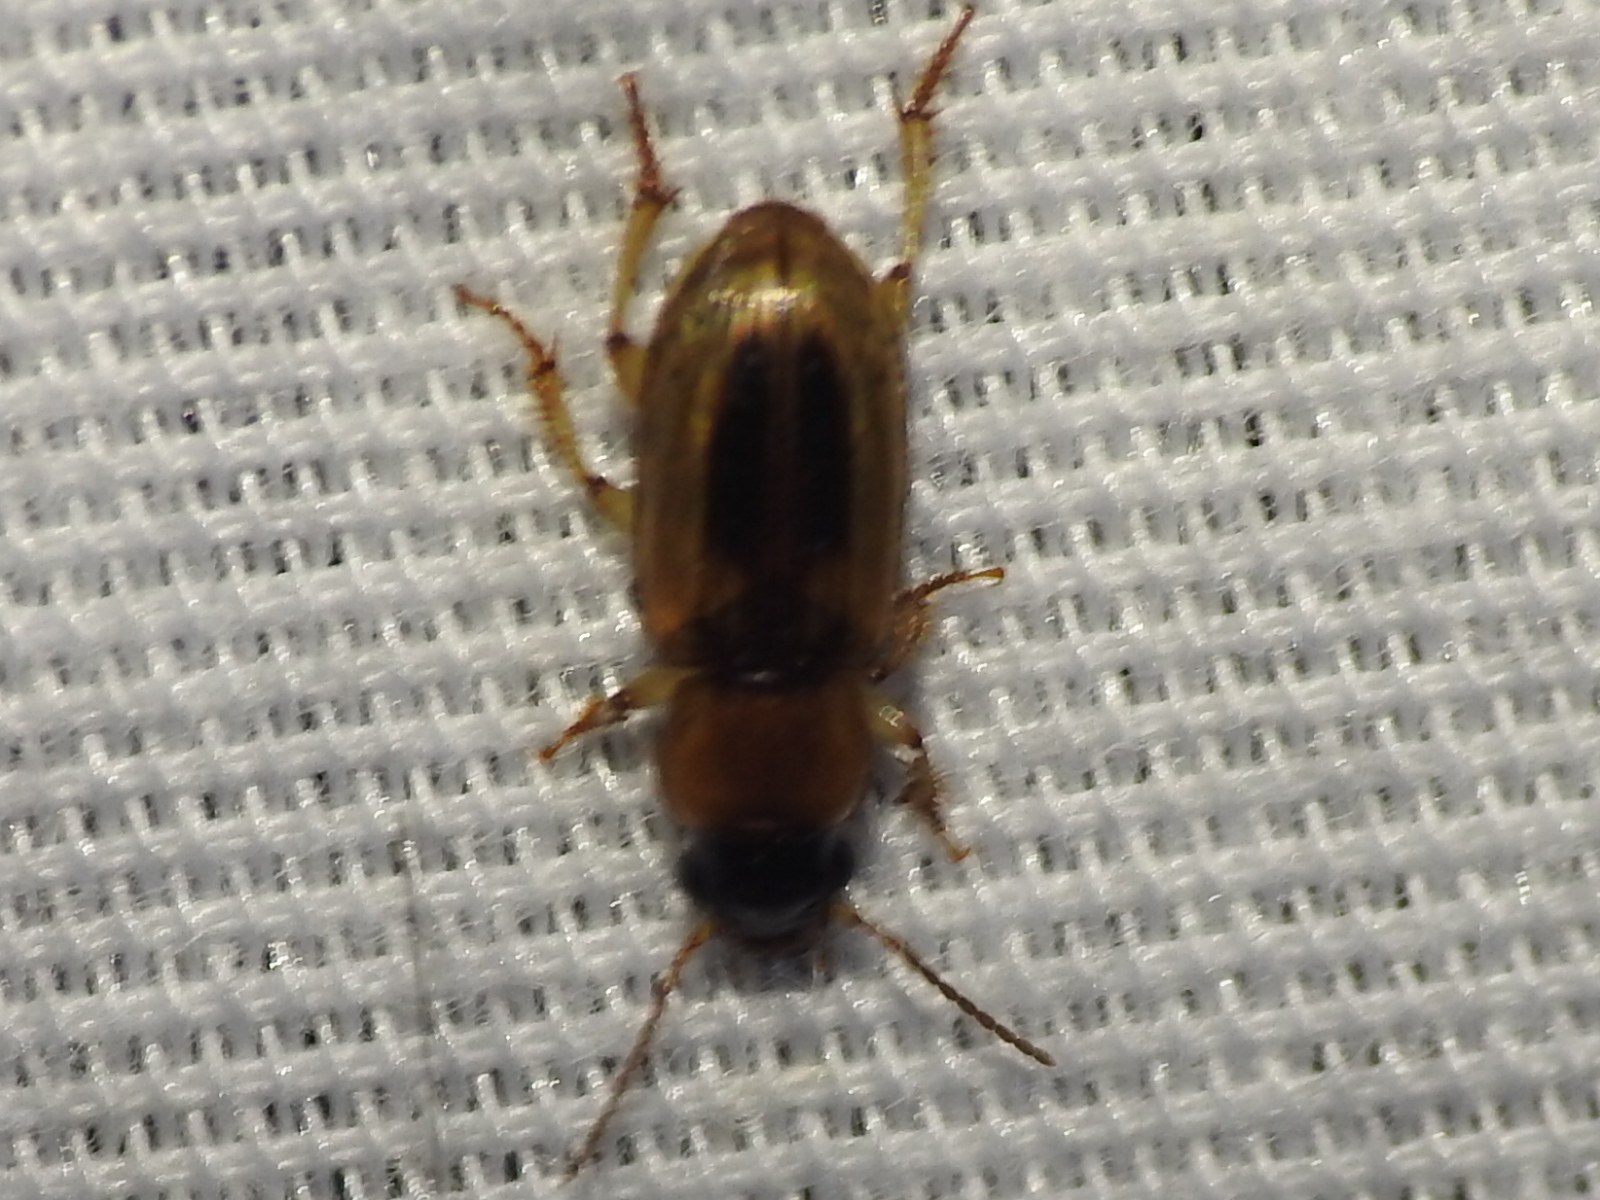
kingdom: Animalia
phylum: Arthropoda
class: Insecta
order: Coleoptera
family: Carabidae
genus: Stenolophus
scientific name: Stenolophus lecontei
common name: Leconte's seedcorn beetle
